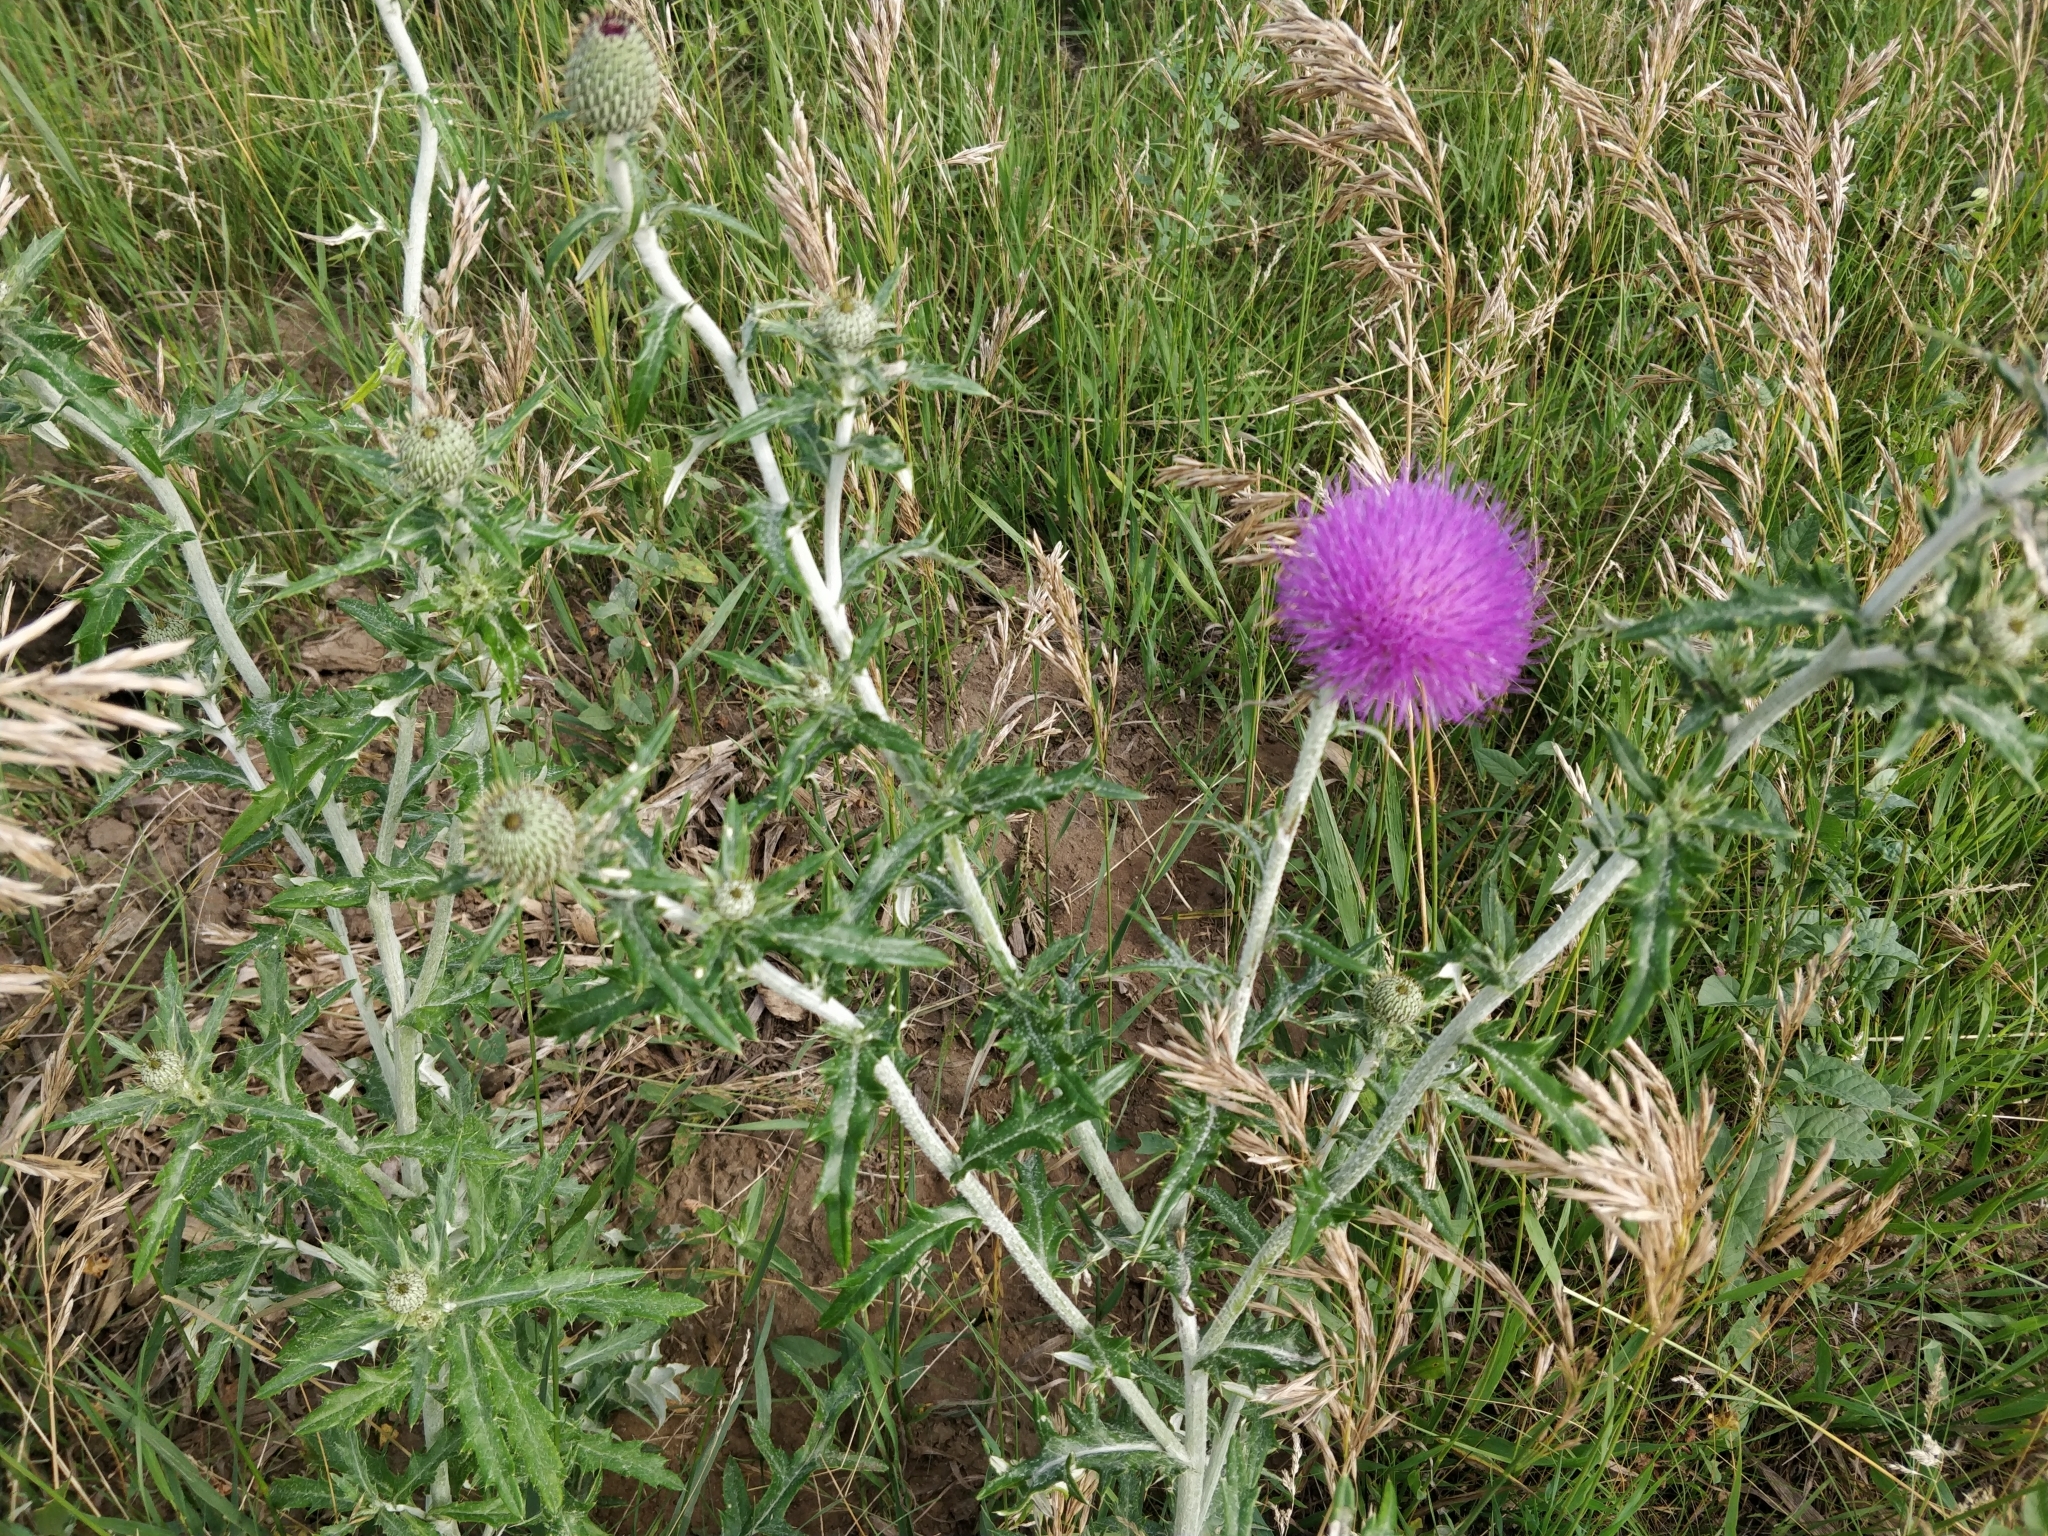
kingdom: Plantae
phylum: Tracheophyta
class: Magnoliopsida
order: Asterales
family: Asteraceae
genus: Cirsium
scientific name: Cirsium flodmanii
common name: Flodman's thistle
